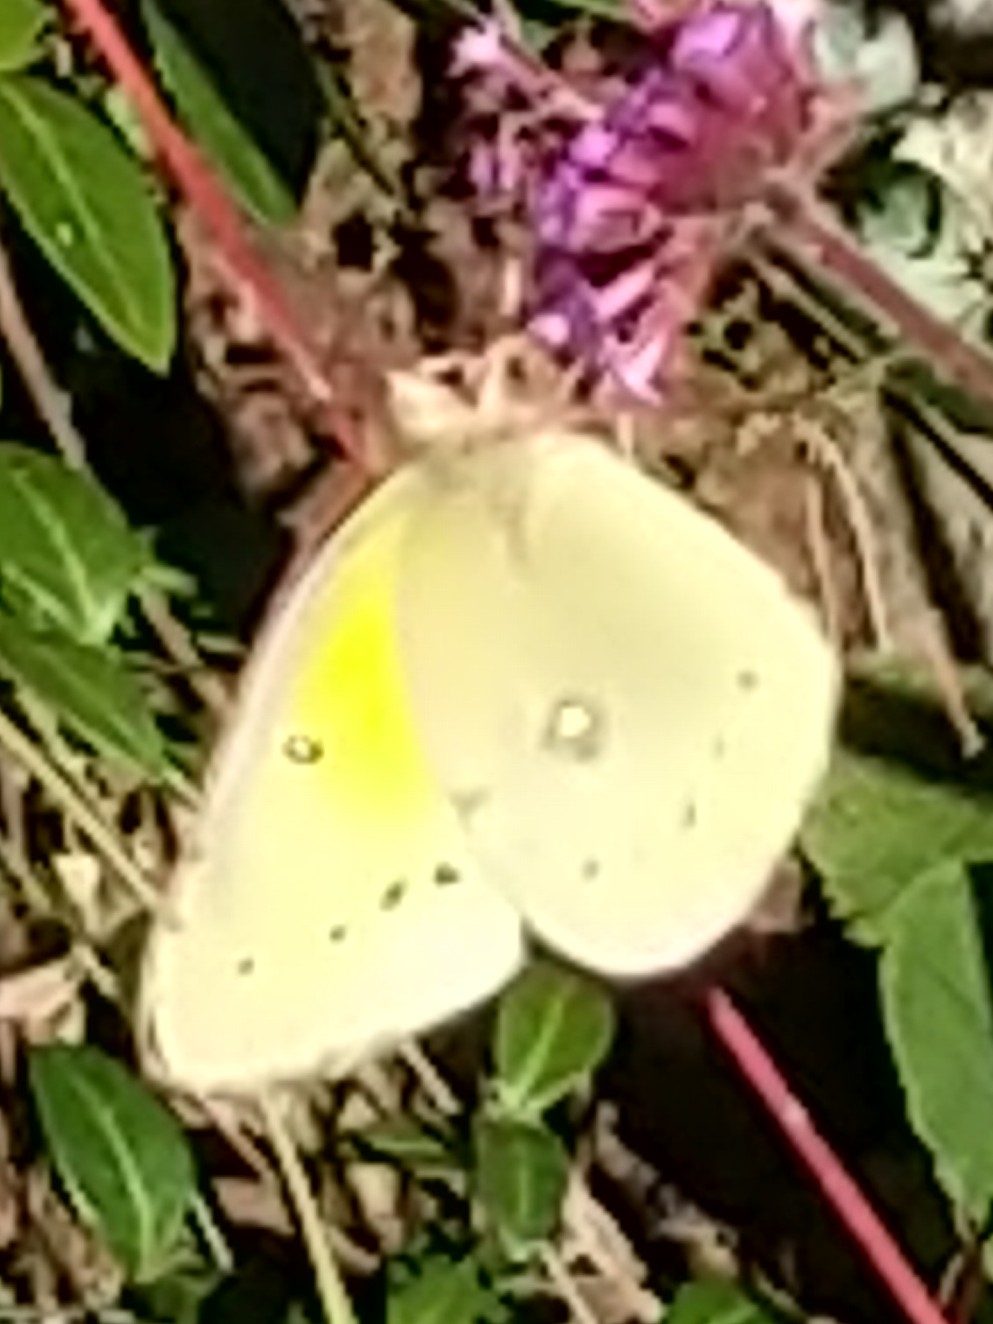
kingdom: Animalia
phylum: Arthropoda
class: Insecta
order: Lepidoptera
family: Pieridae
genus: Colias
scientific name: Colias philodice
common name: Clouded sulphur
